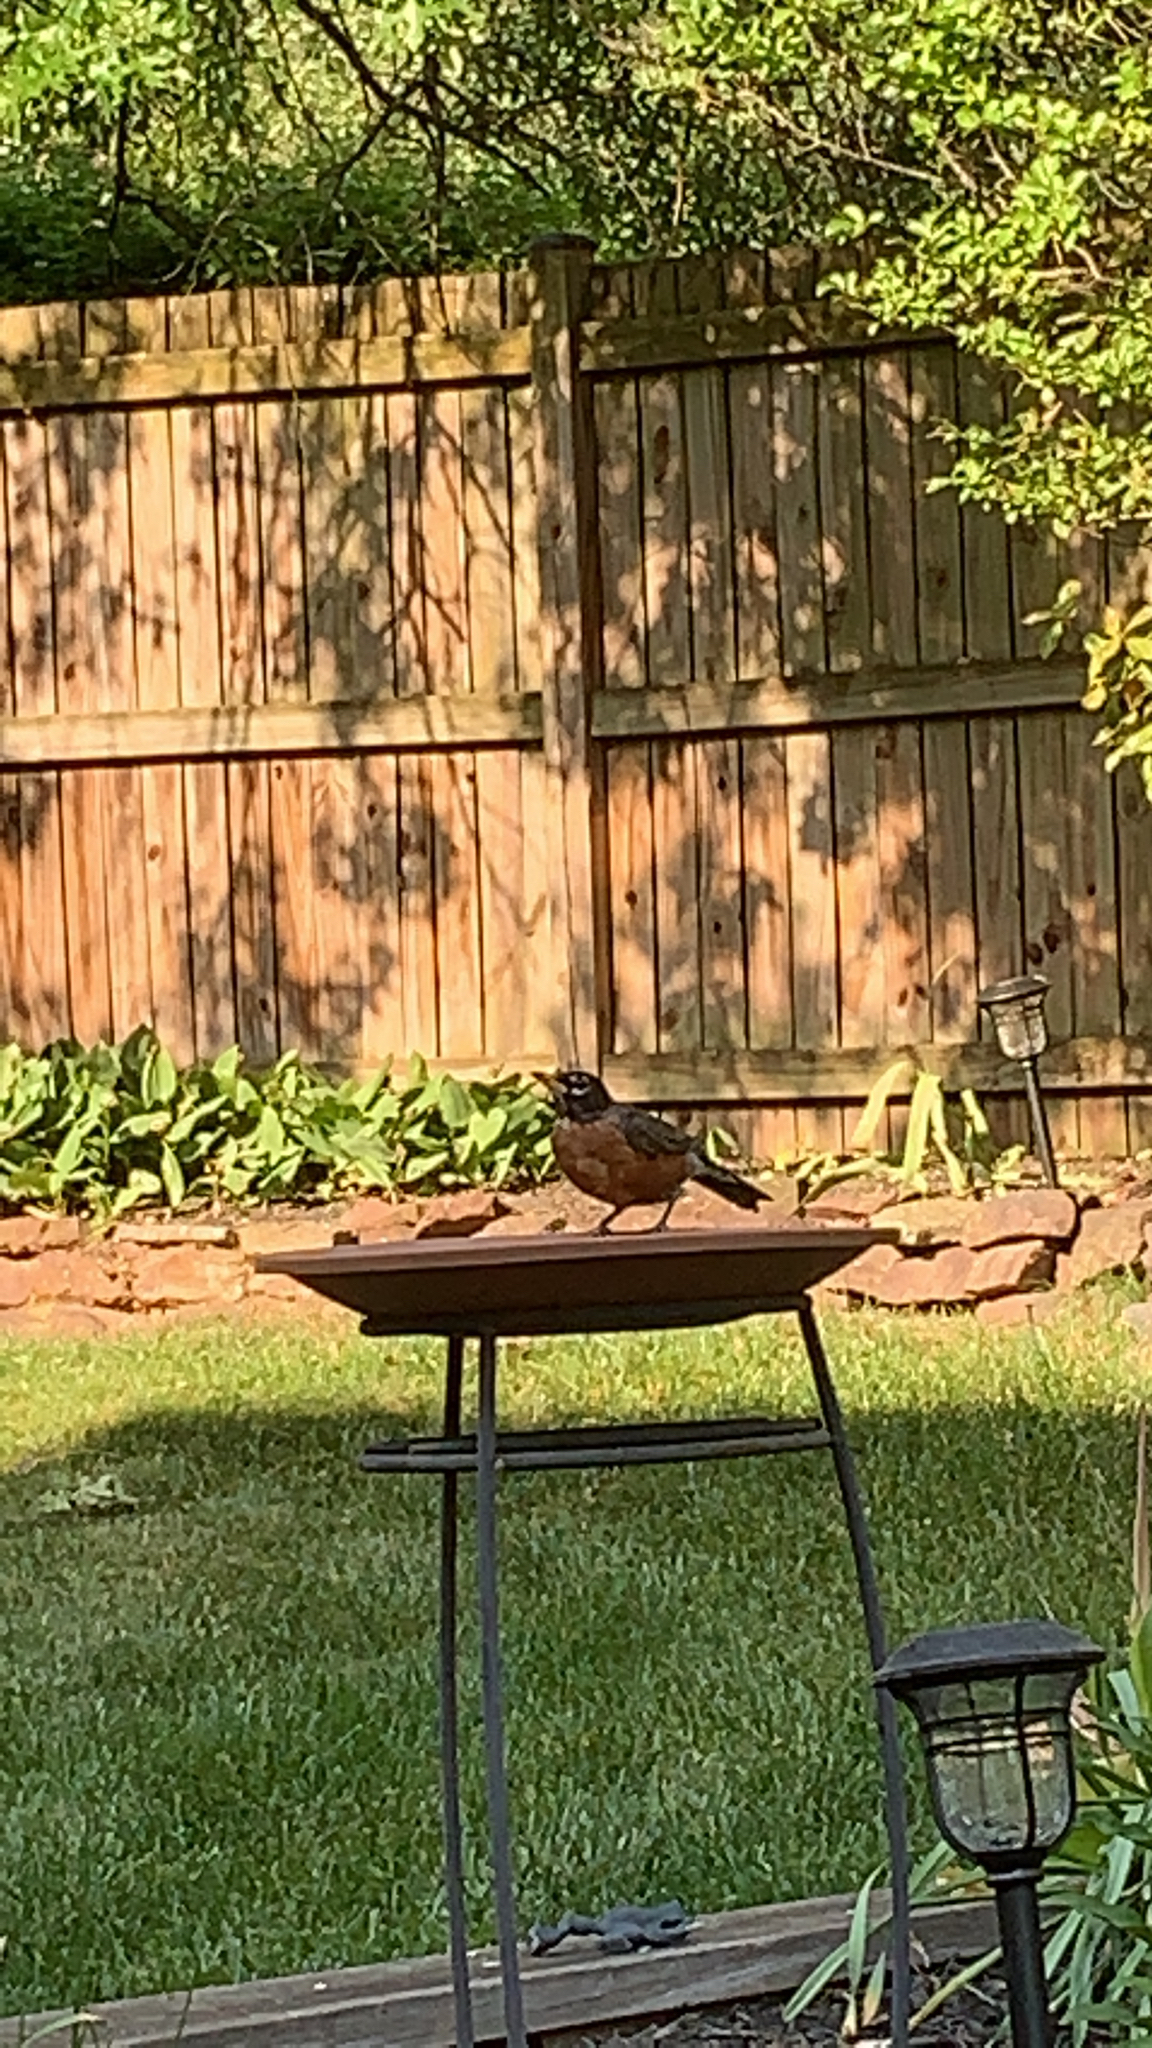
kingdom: Animalia
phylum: Chordata
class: Aves
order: Passeriformes
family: Turdidae
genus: Turdus
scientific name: Turdus migratorius
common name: American robin
